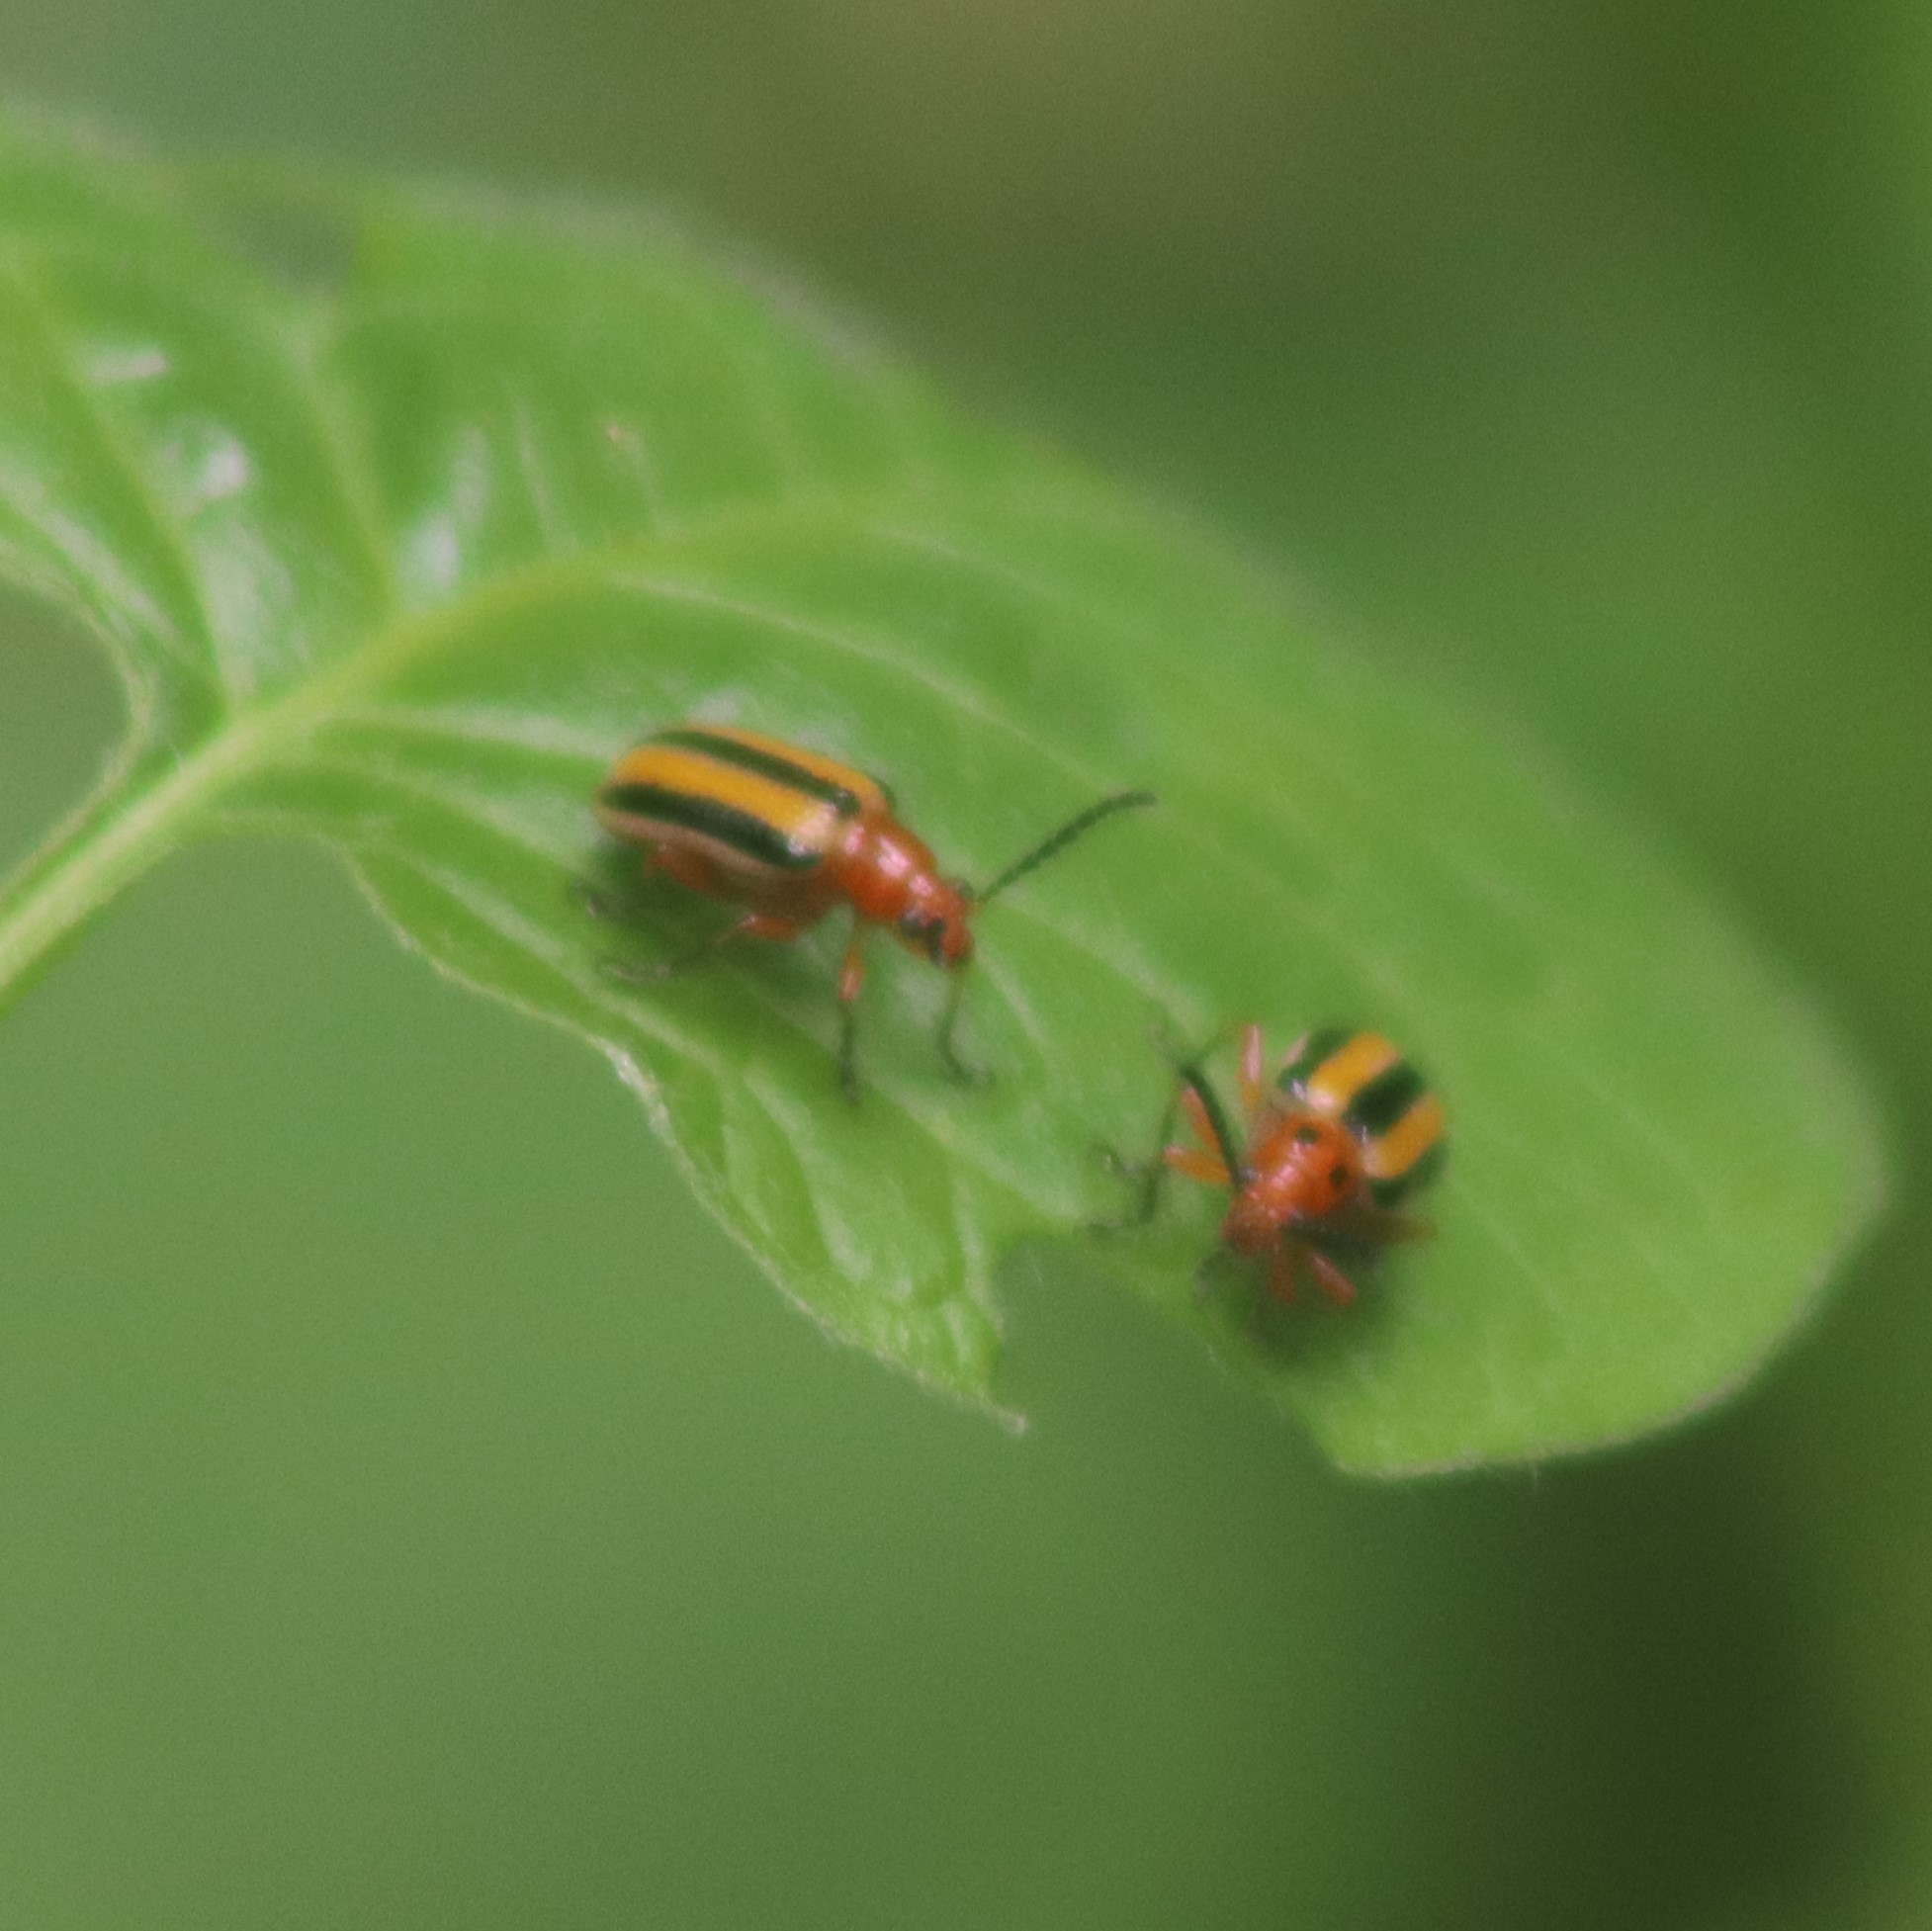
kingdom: Animalia
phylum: Arthropoda
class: Insecta
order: Coleoptera
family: Chrysomelidae
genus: Lema
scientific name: Lema daturaphila
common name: Leaf beetle
